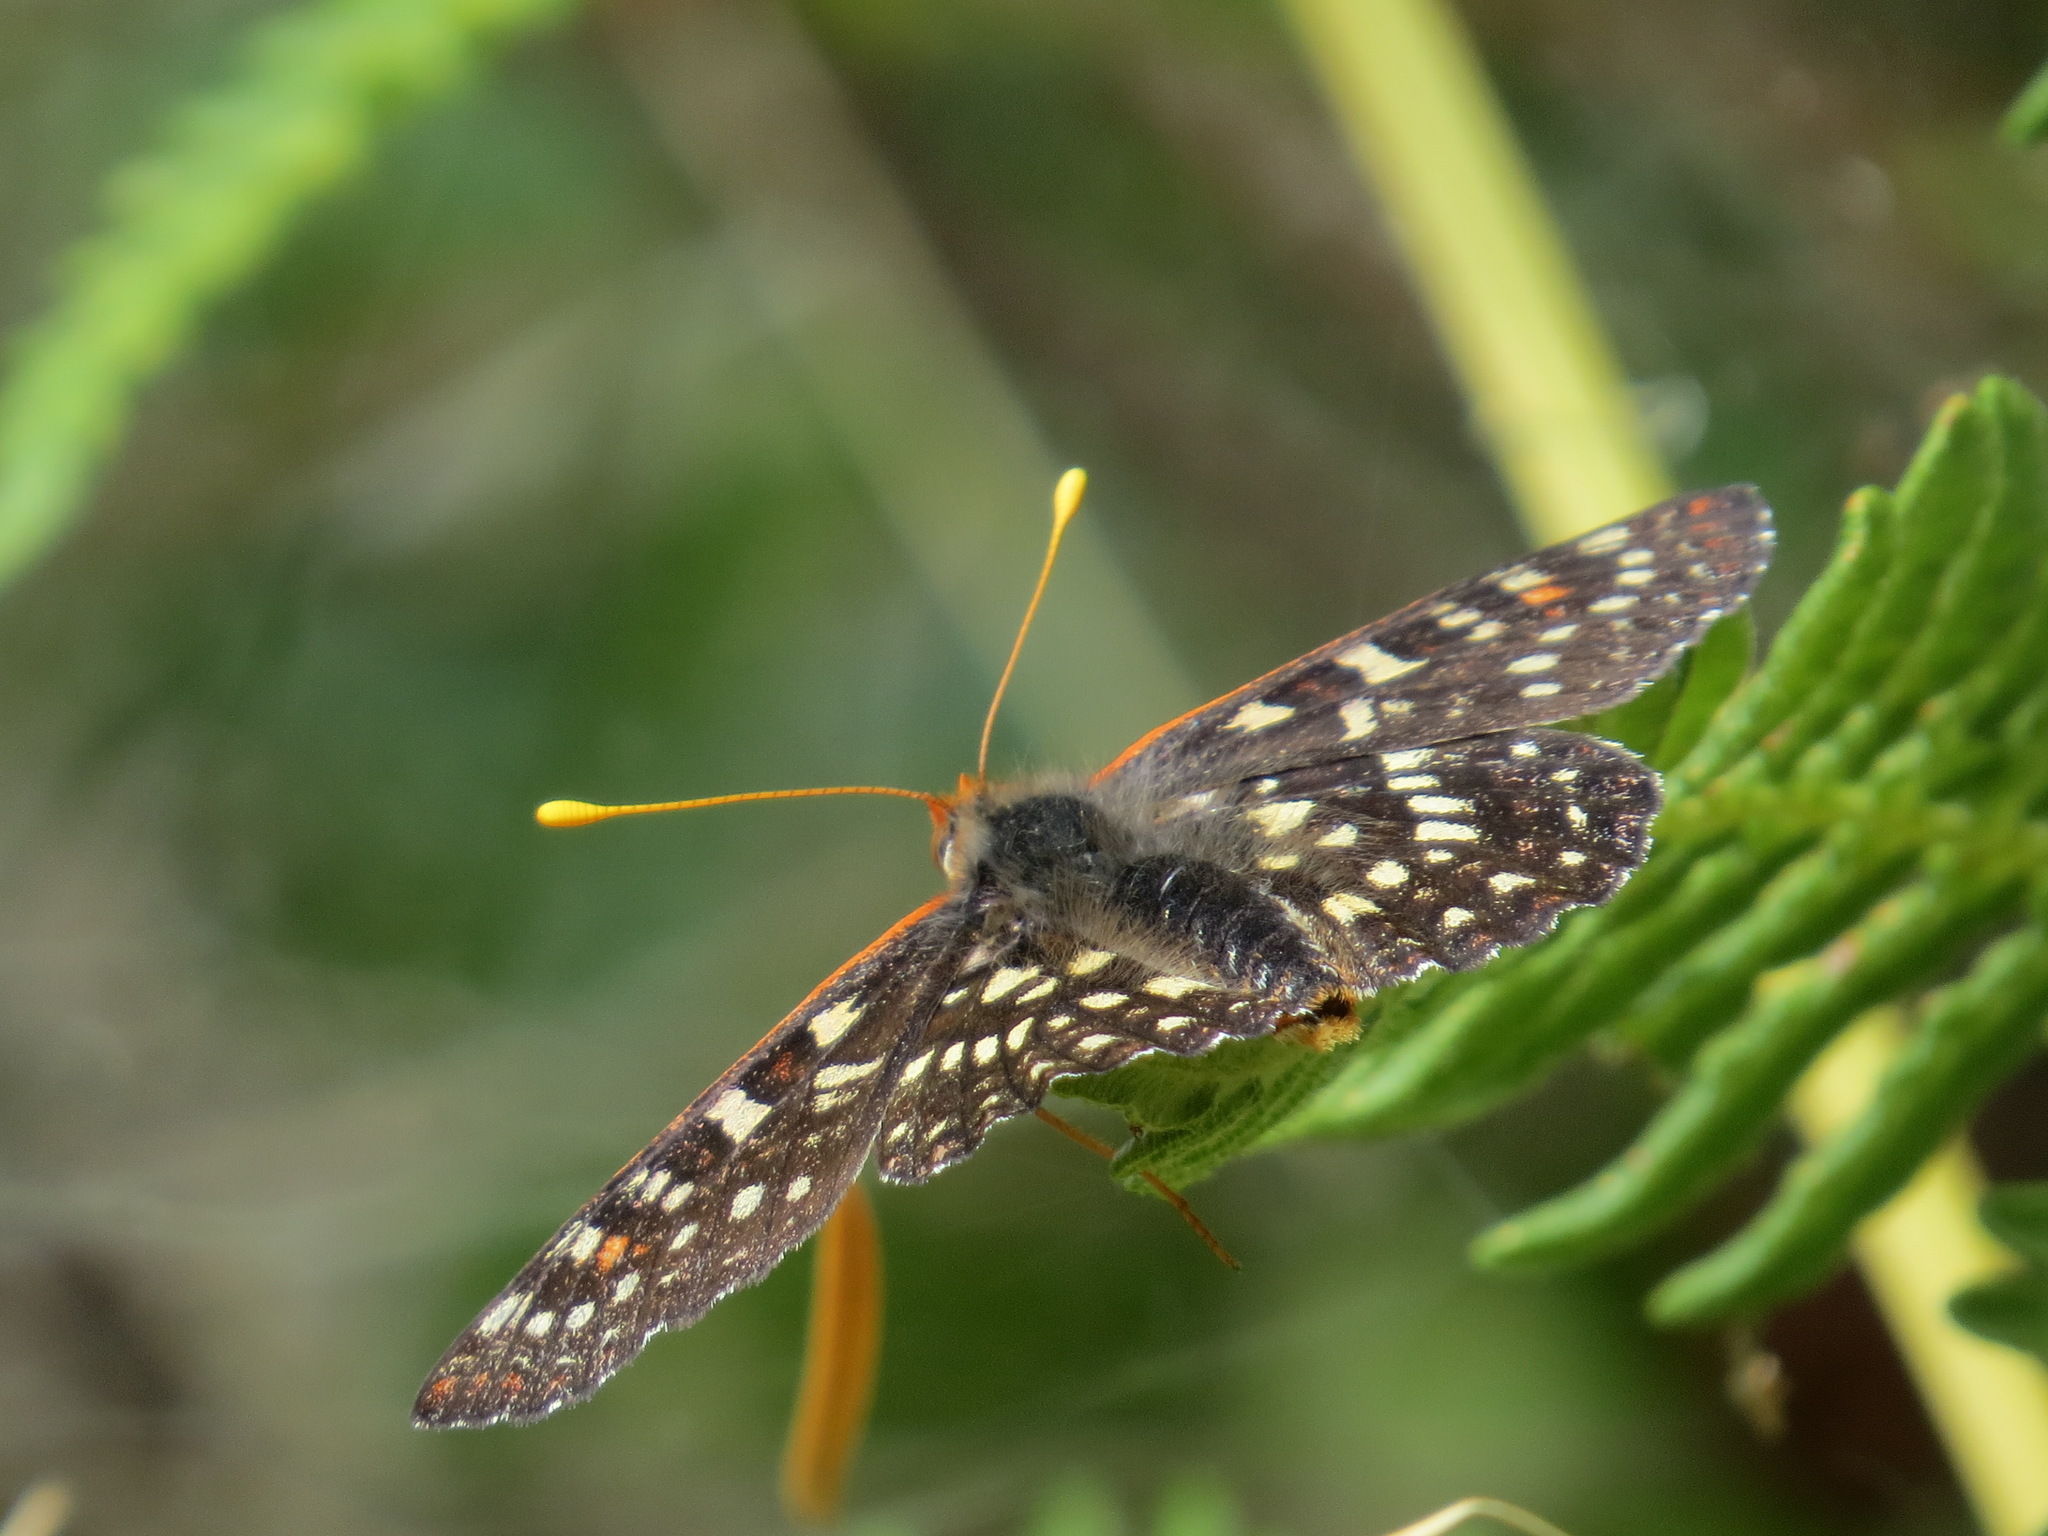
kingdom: Animalia
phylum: Arthropoda
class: Insecta
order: Lepidoptera
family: Nymphalidae
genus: Occidryas
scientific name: Occidryas chalcedona
